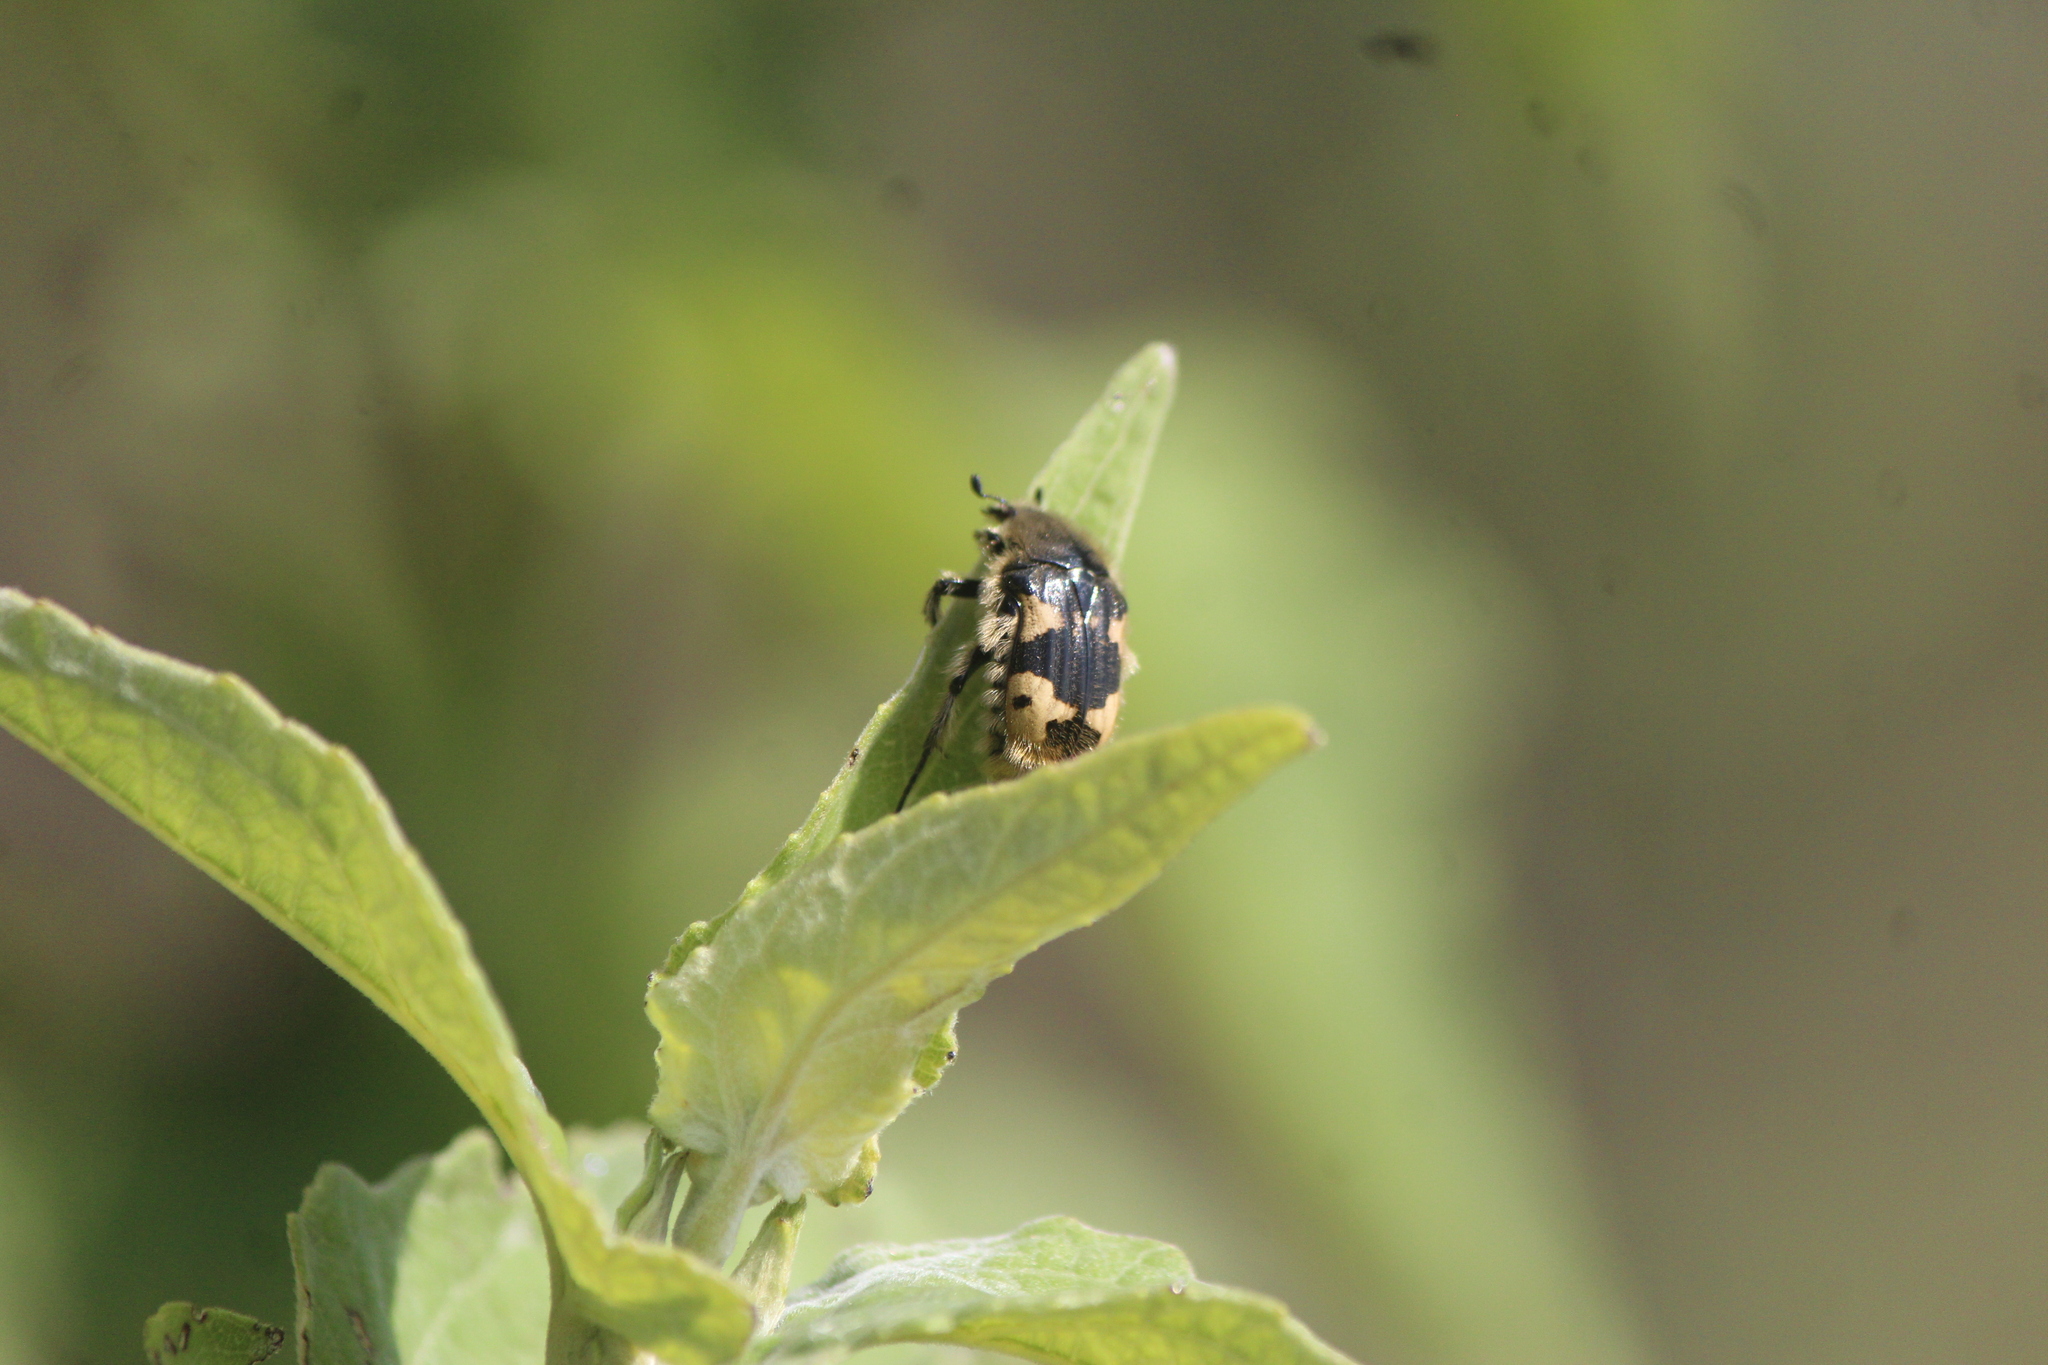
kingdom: Animalia
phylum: Arthropoda
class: Insecta
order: Coleoptera
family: Scarabaeidae
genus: Euphoria
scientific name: Euphoria basalis
